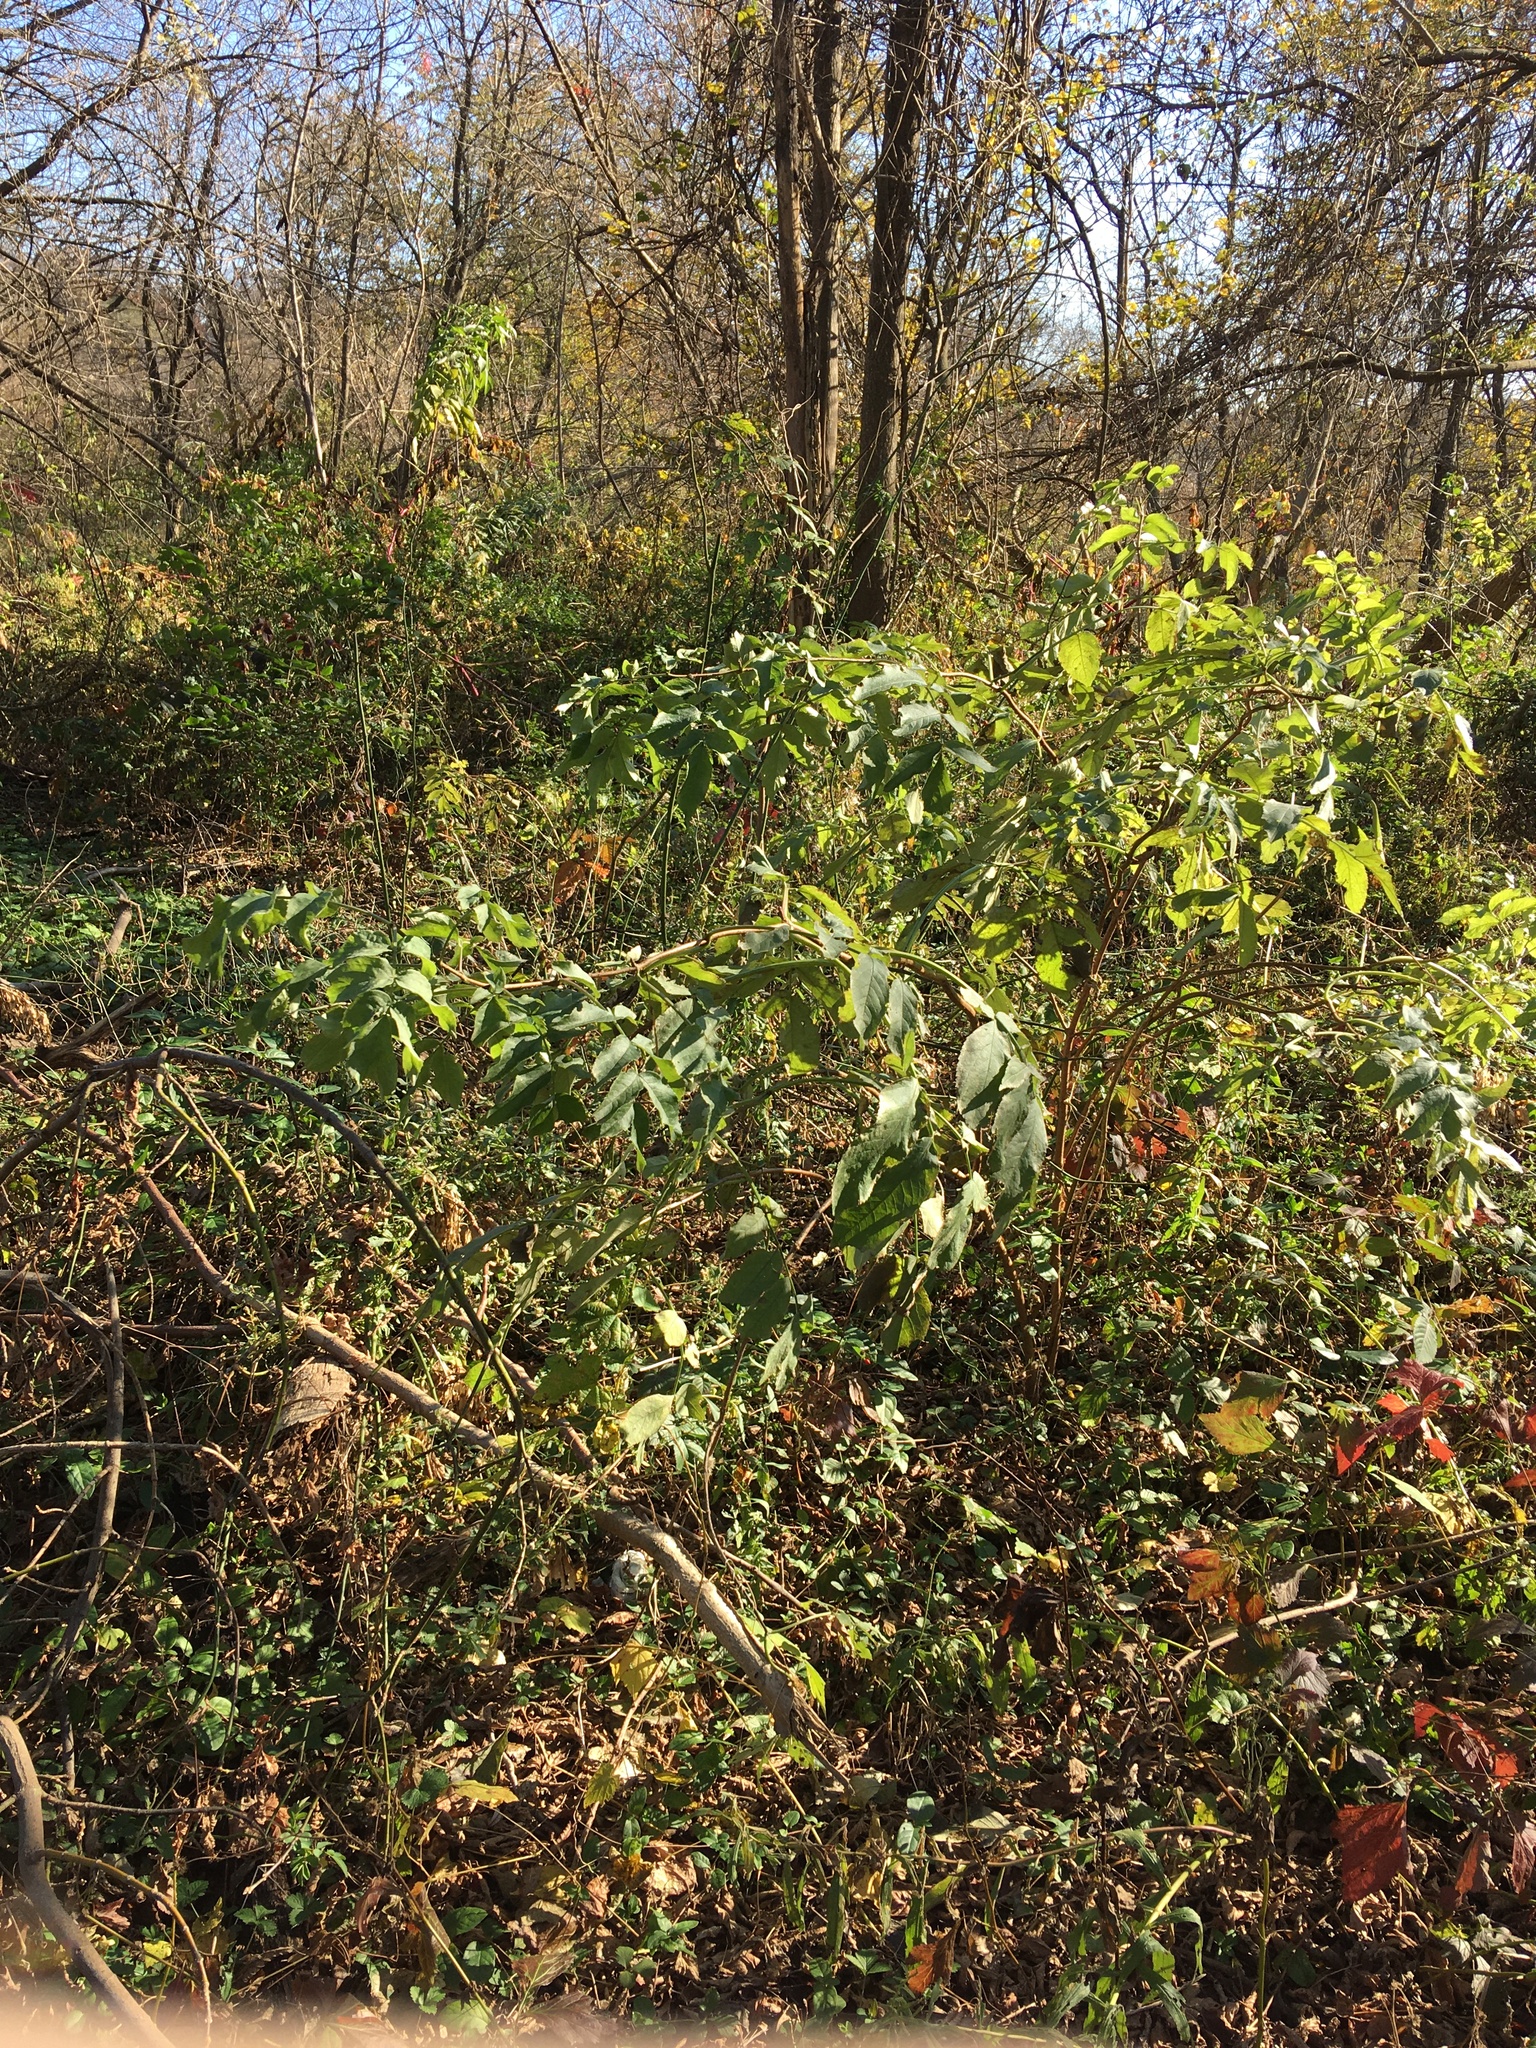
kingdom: Plantae
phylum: Tracheophyta
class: Magnoliopsida
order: Dipsacales
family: Viburnaceae
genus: Sambucus
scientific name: Sambucus canadensis
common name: American elder
